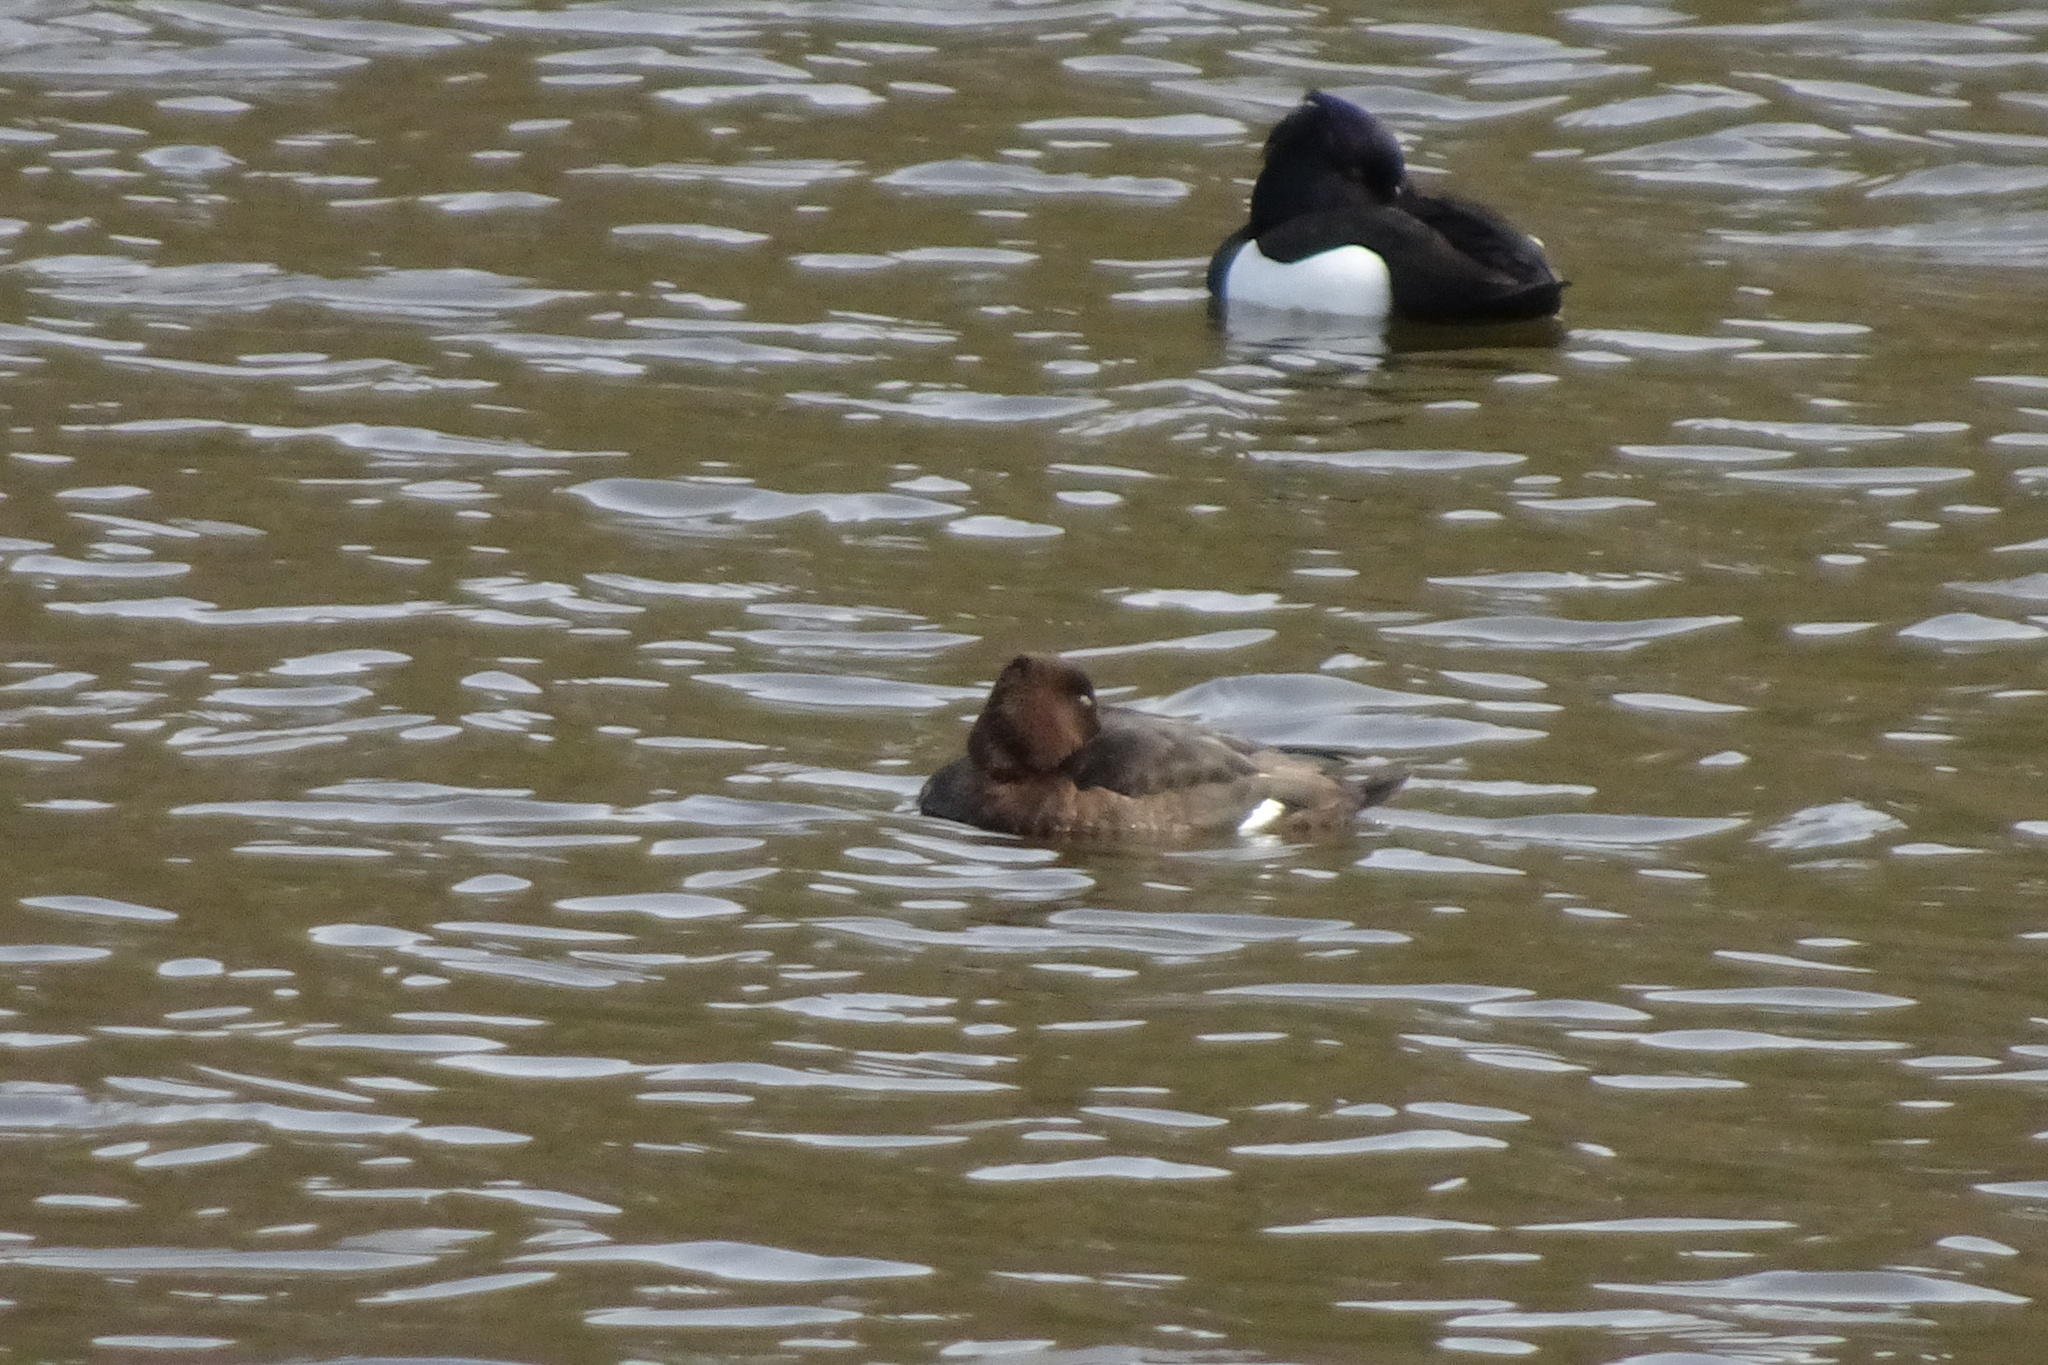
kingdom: Animalia
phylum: Chordata
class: Aves
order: Anseriformes
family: Anatidae
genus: Aythya
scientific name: Aythya fuligula
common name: Tufted duck
